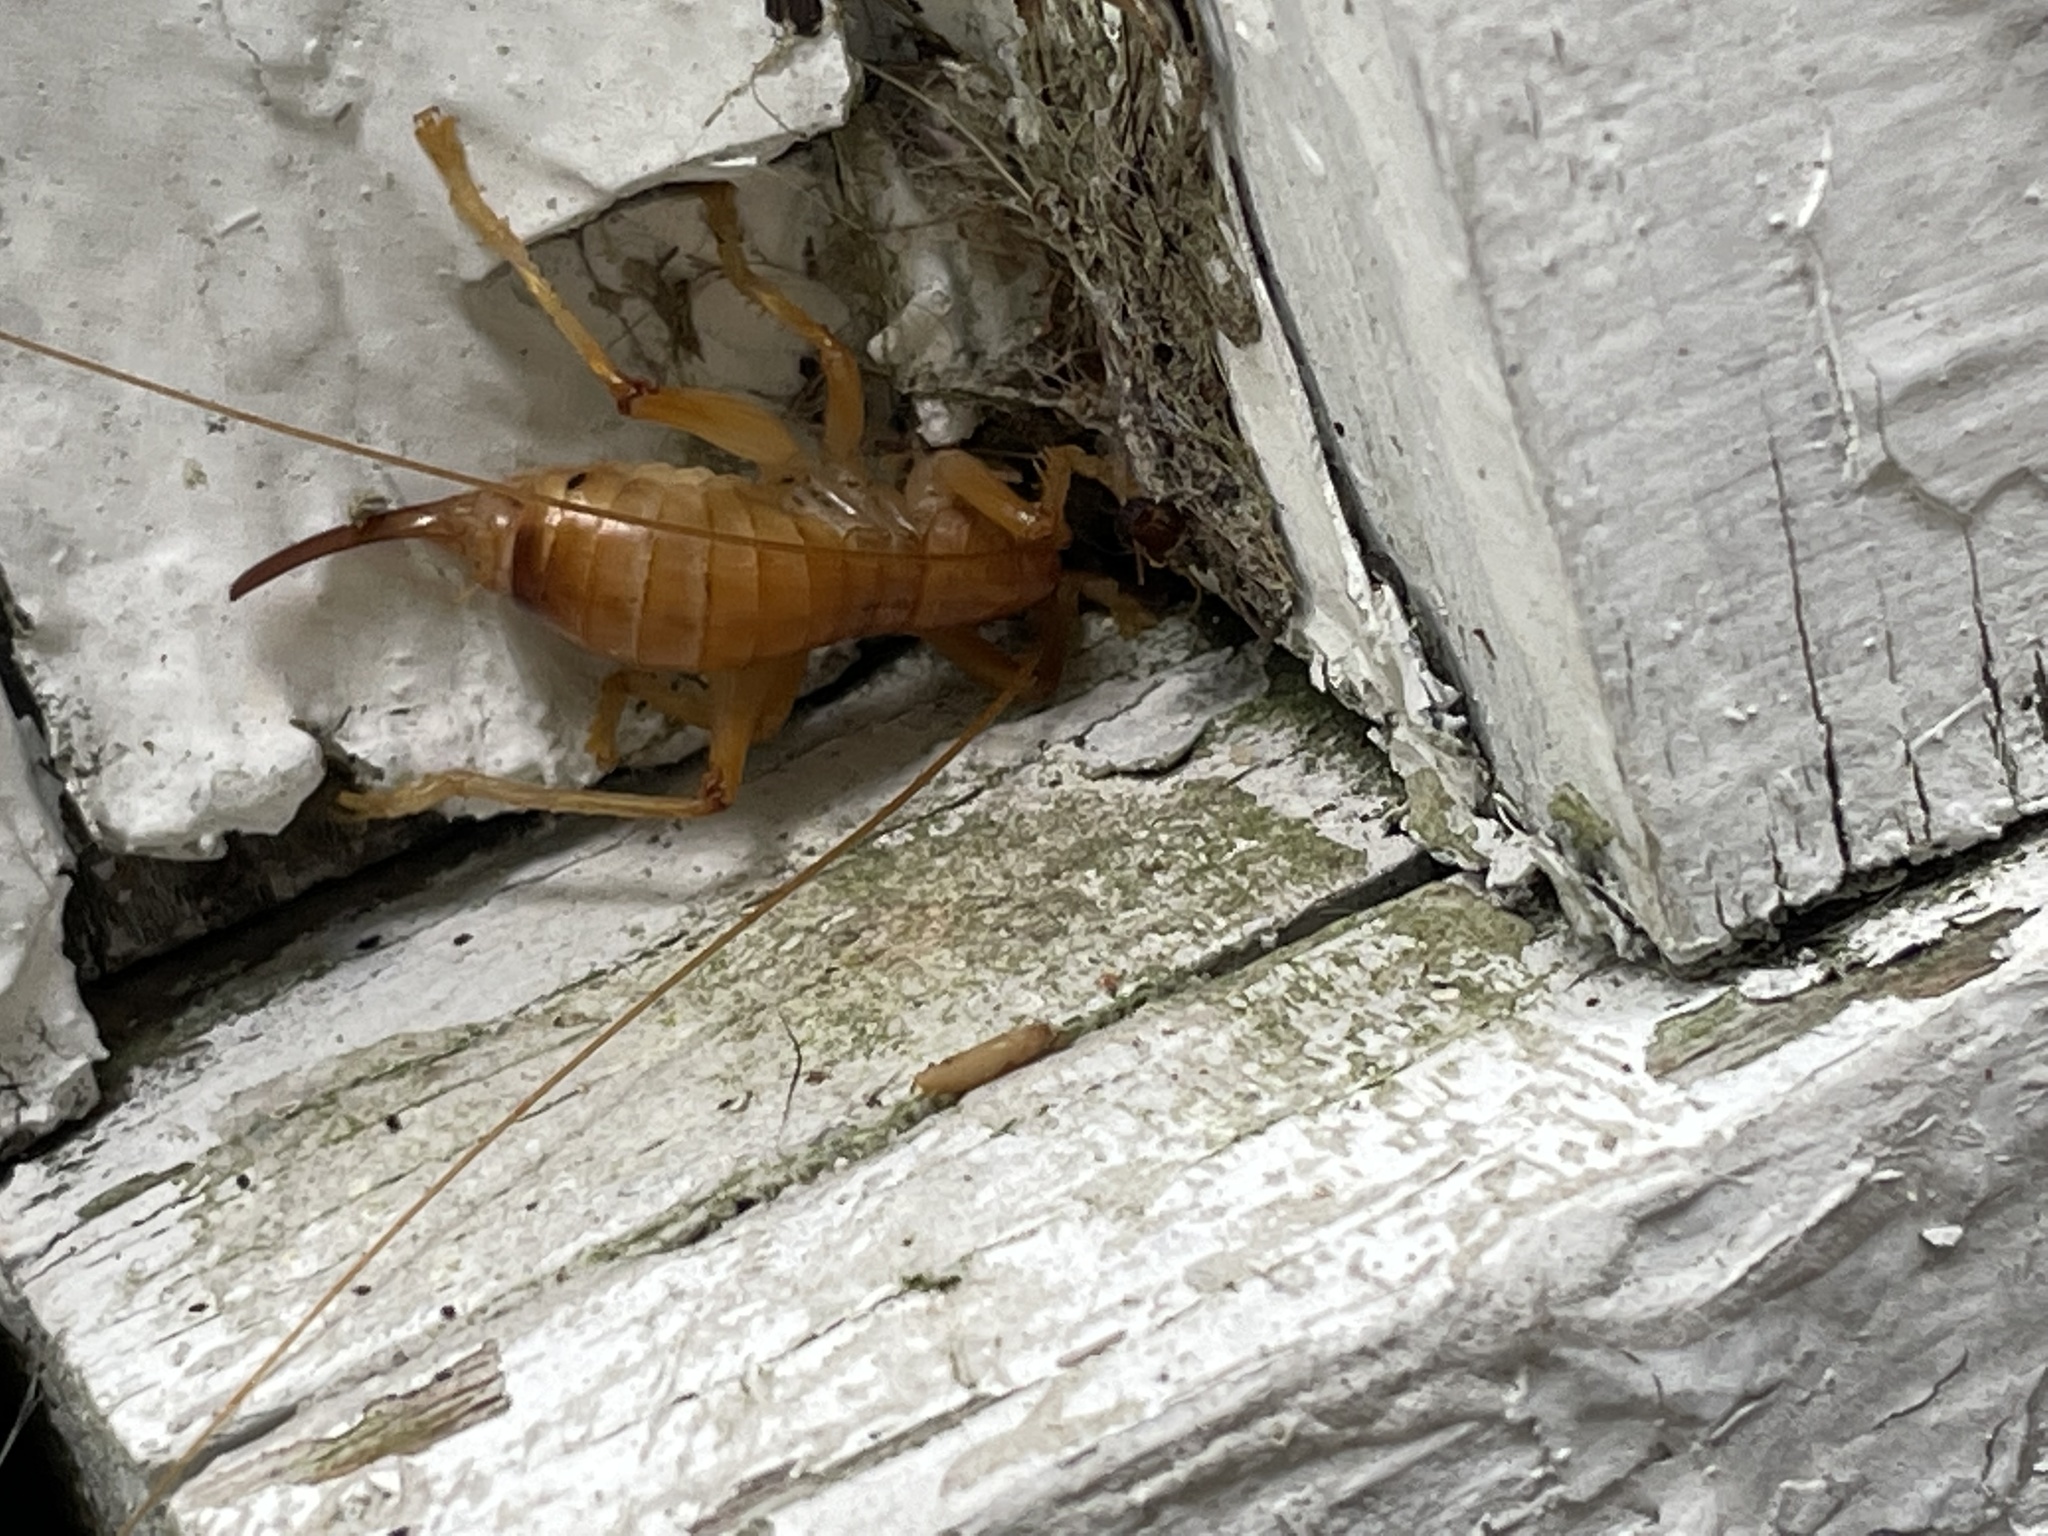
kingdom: Animalia
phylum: Arthropoda
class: Insecta
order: Orthoptera
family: Gryllacrididae
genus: Camptonotus
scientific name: Camptonotus carolinensis
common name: Carolina leaf-roller
